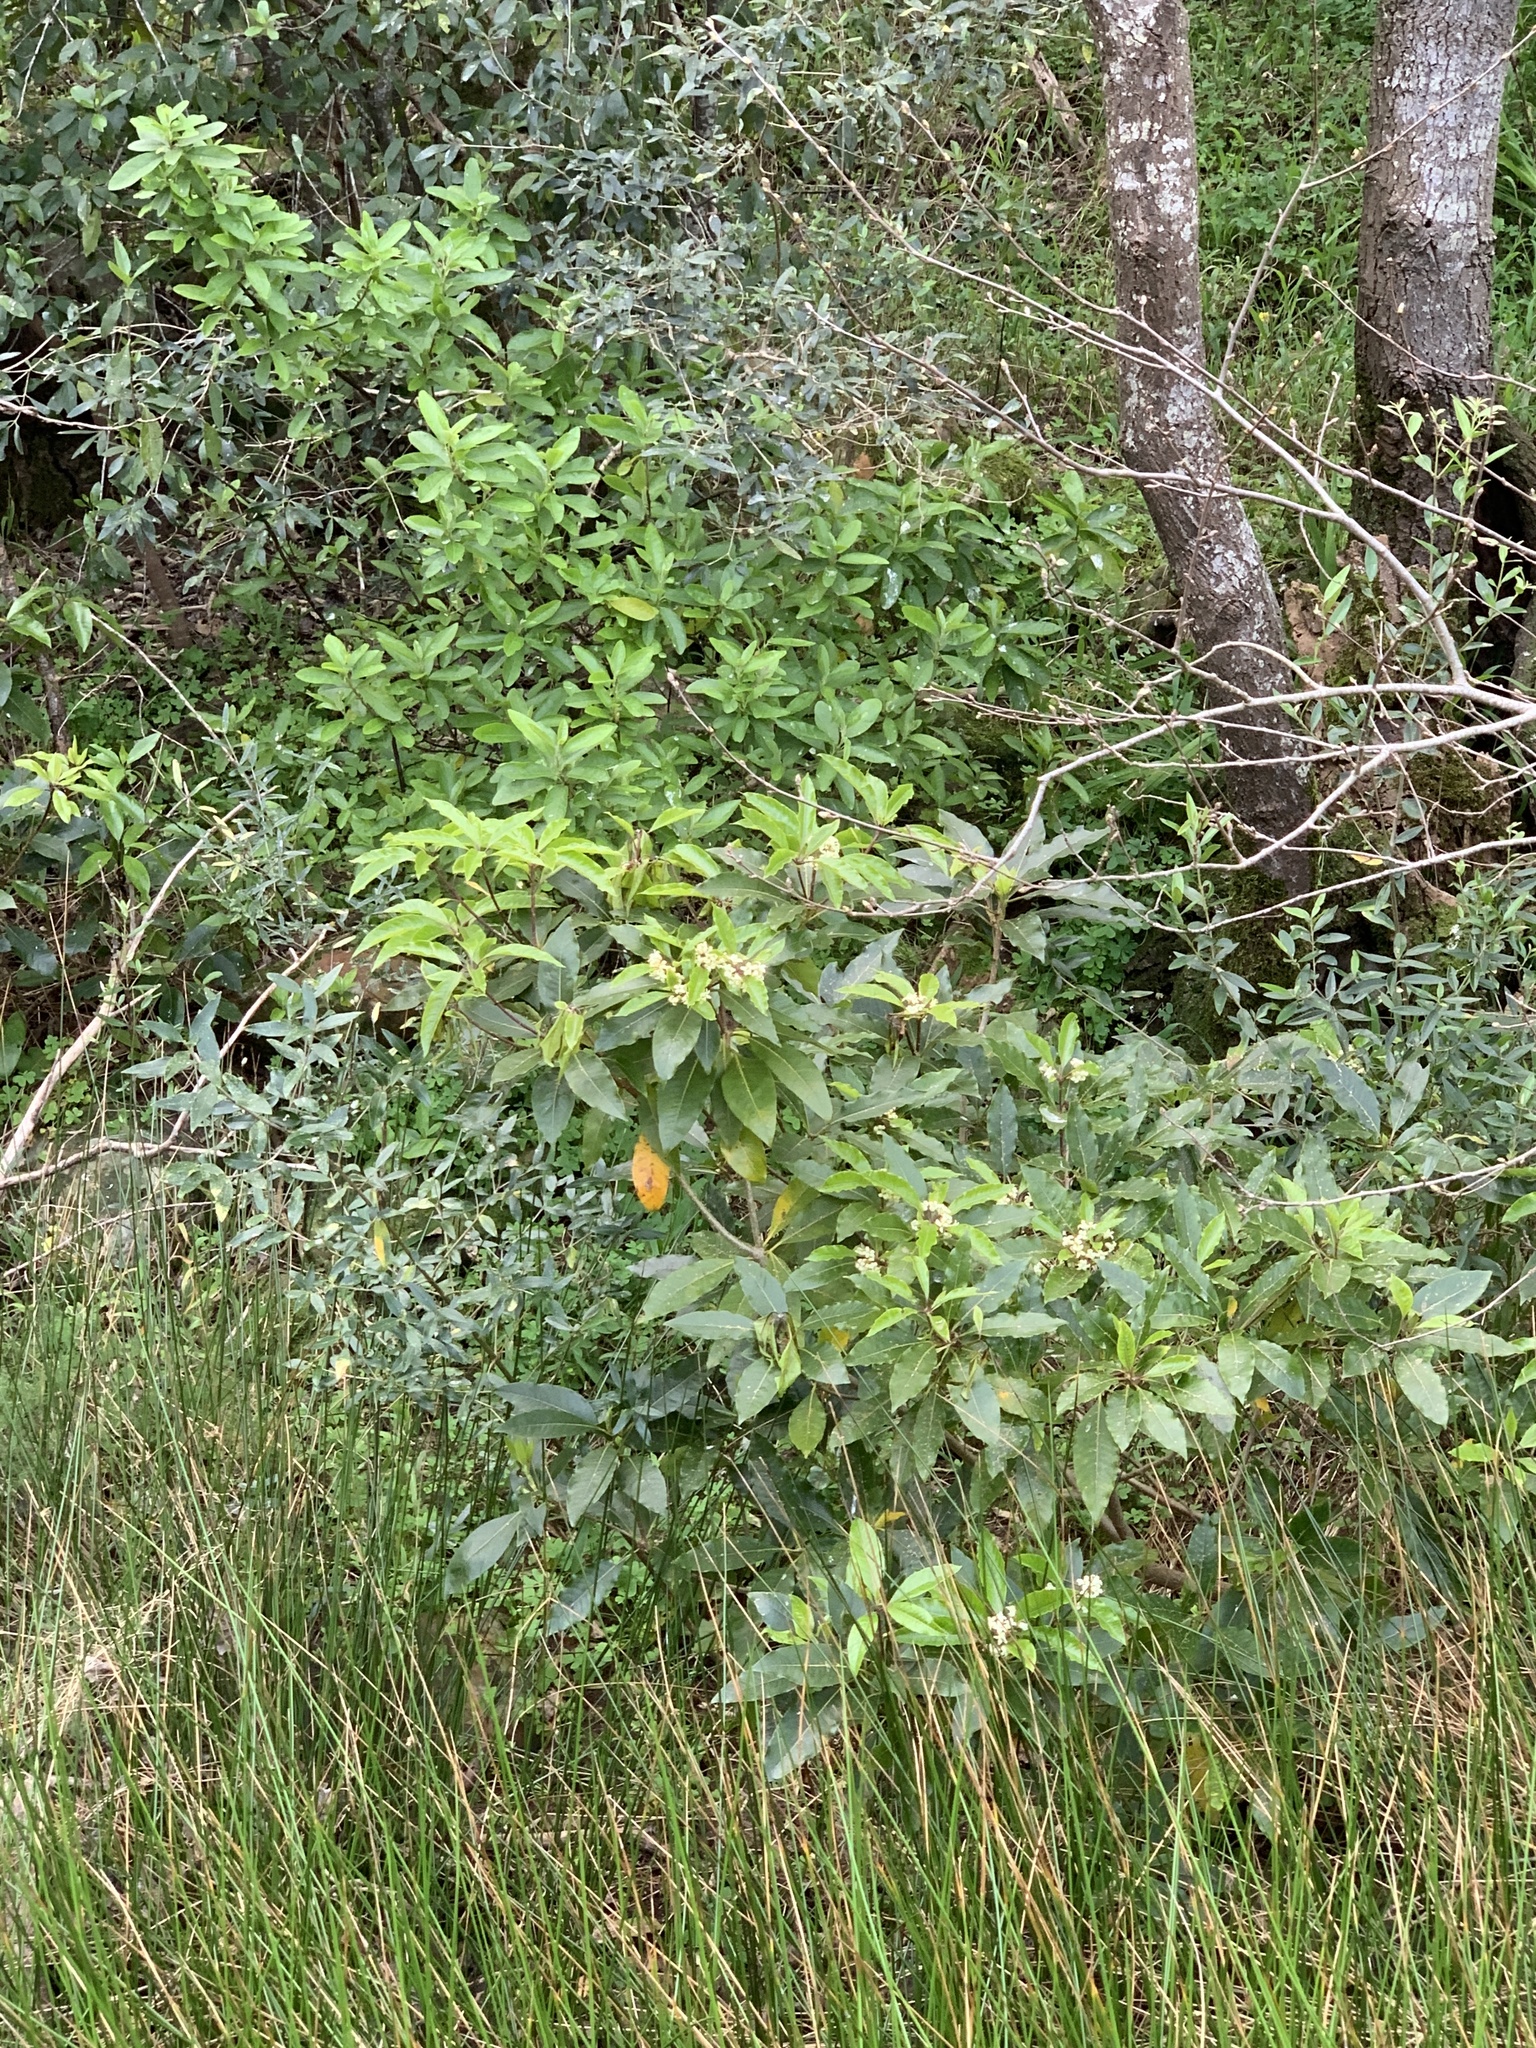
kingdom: Plantae
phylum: Tracheophyta
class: Magnoliopsida
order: Apiales
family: Pittosporaceae
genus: Pittosporum
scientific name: Pittosporum undulatum
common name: Australian cheesewood
